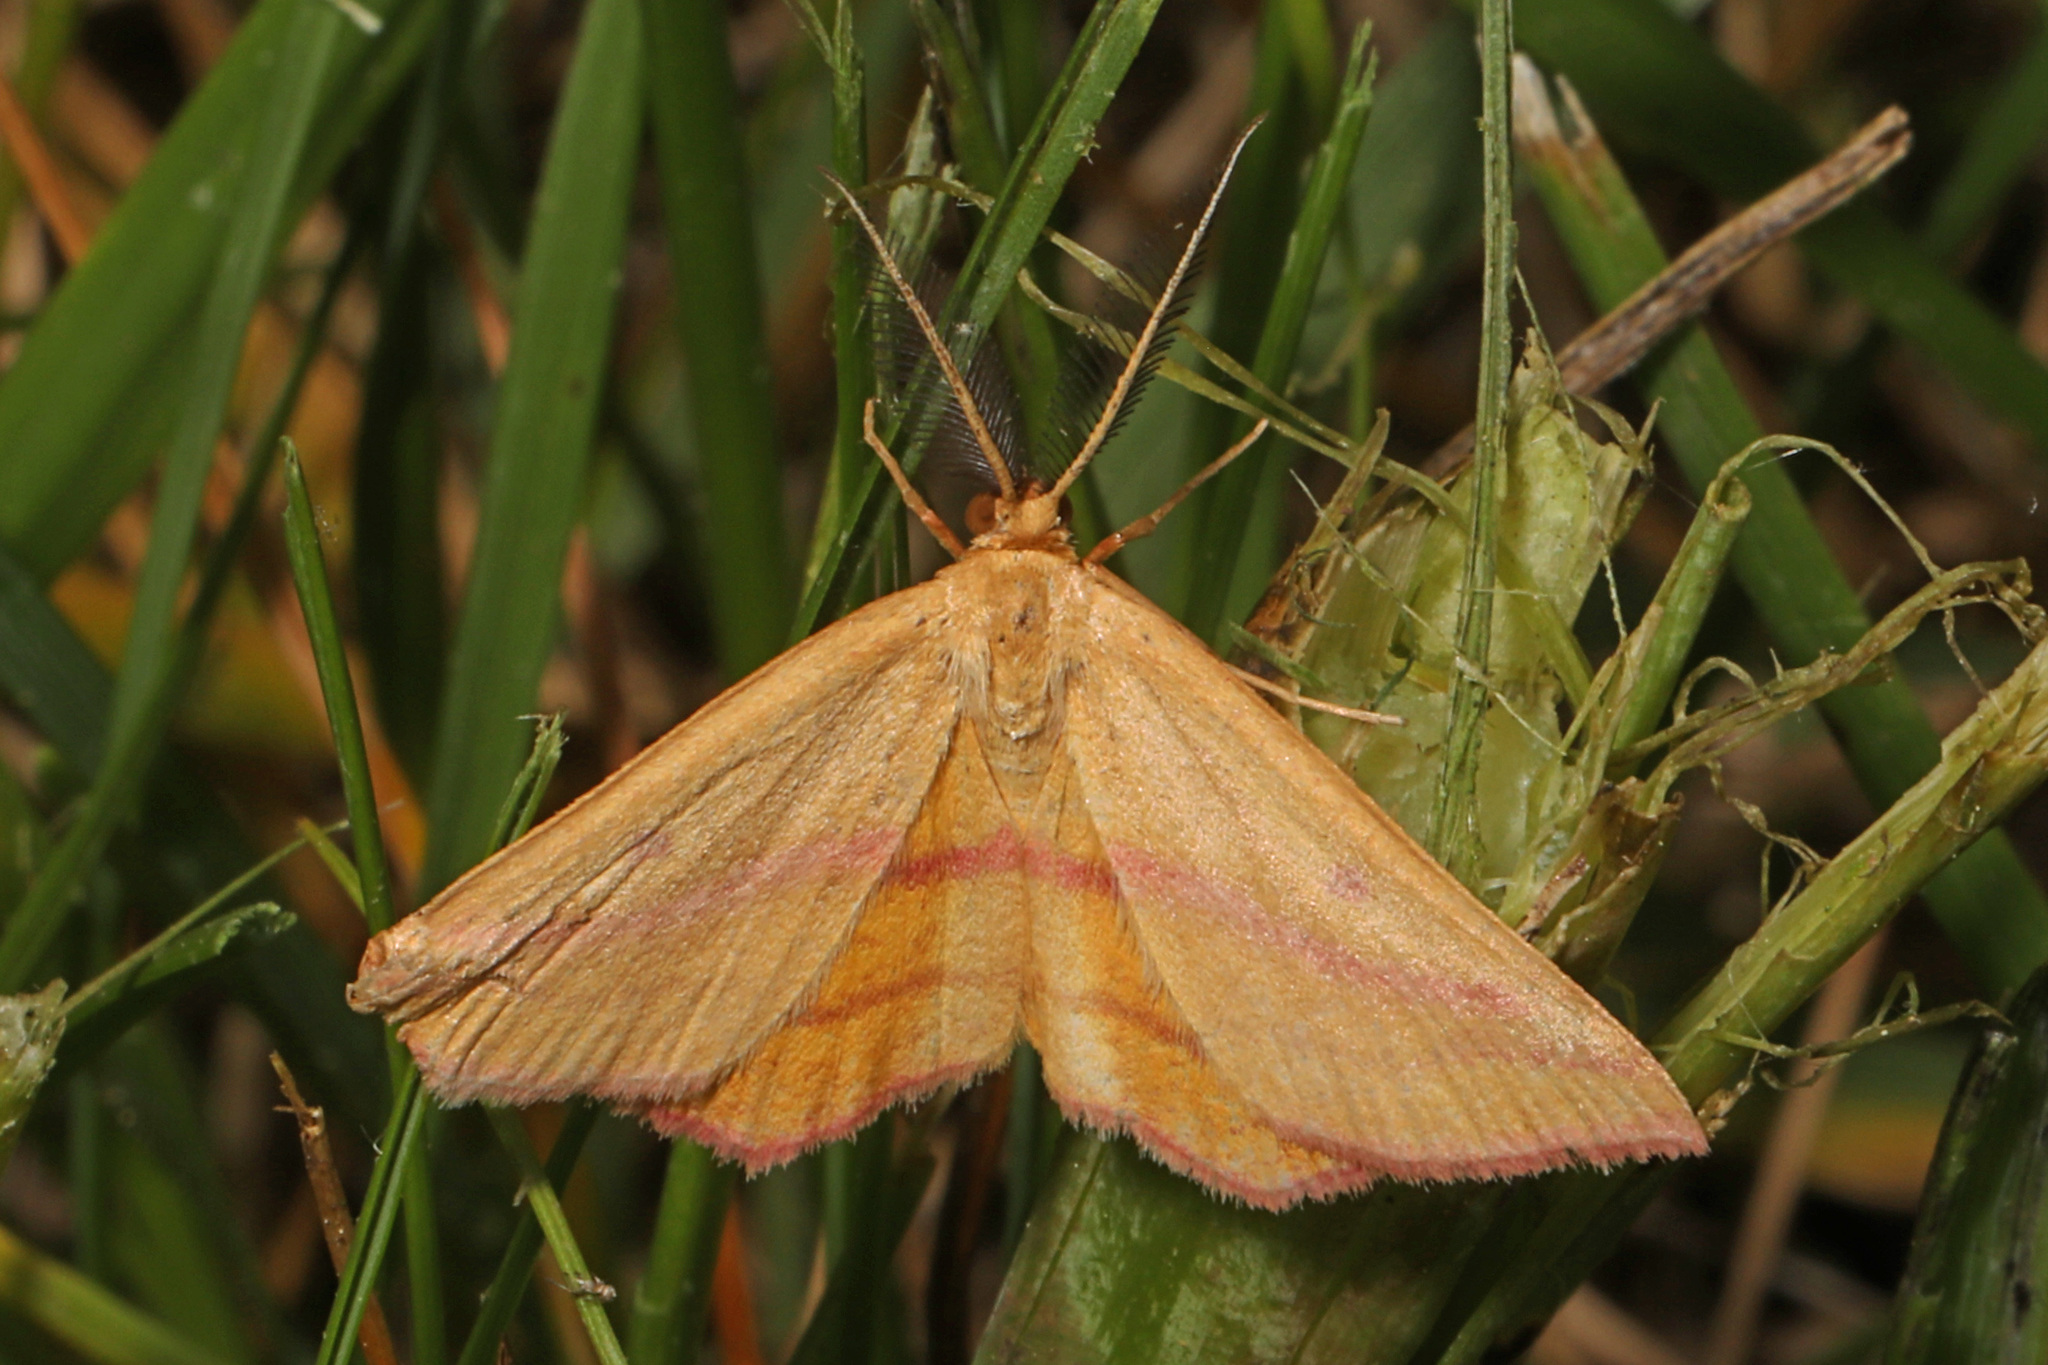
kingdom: Animalia
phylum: Arthropoda
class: Insecta
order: Lepidoptera
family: Geometridae
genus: Haematopis
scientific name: Haematopis grataria
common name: Chickweed geometer
